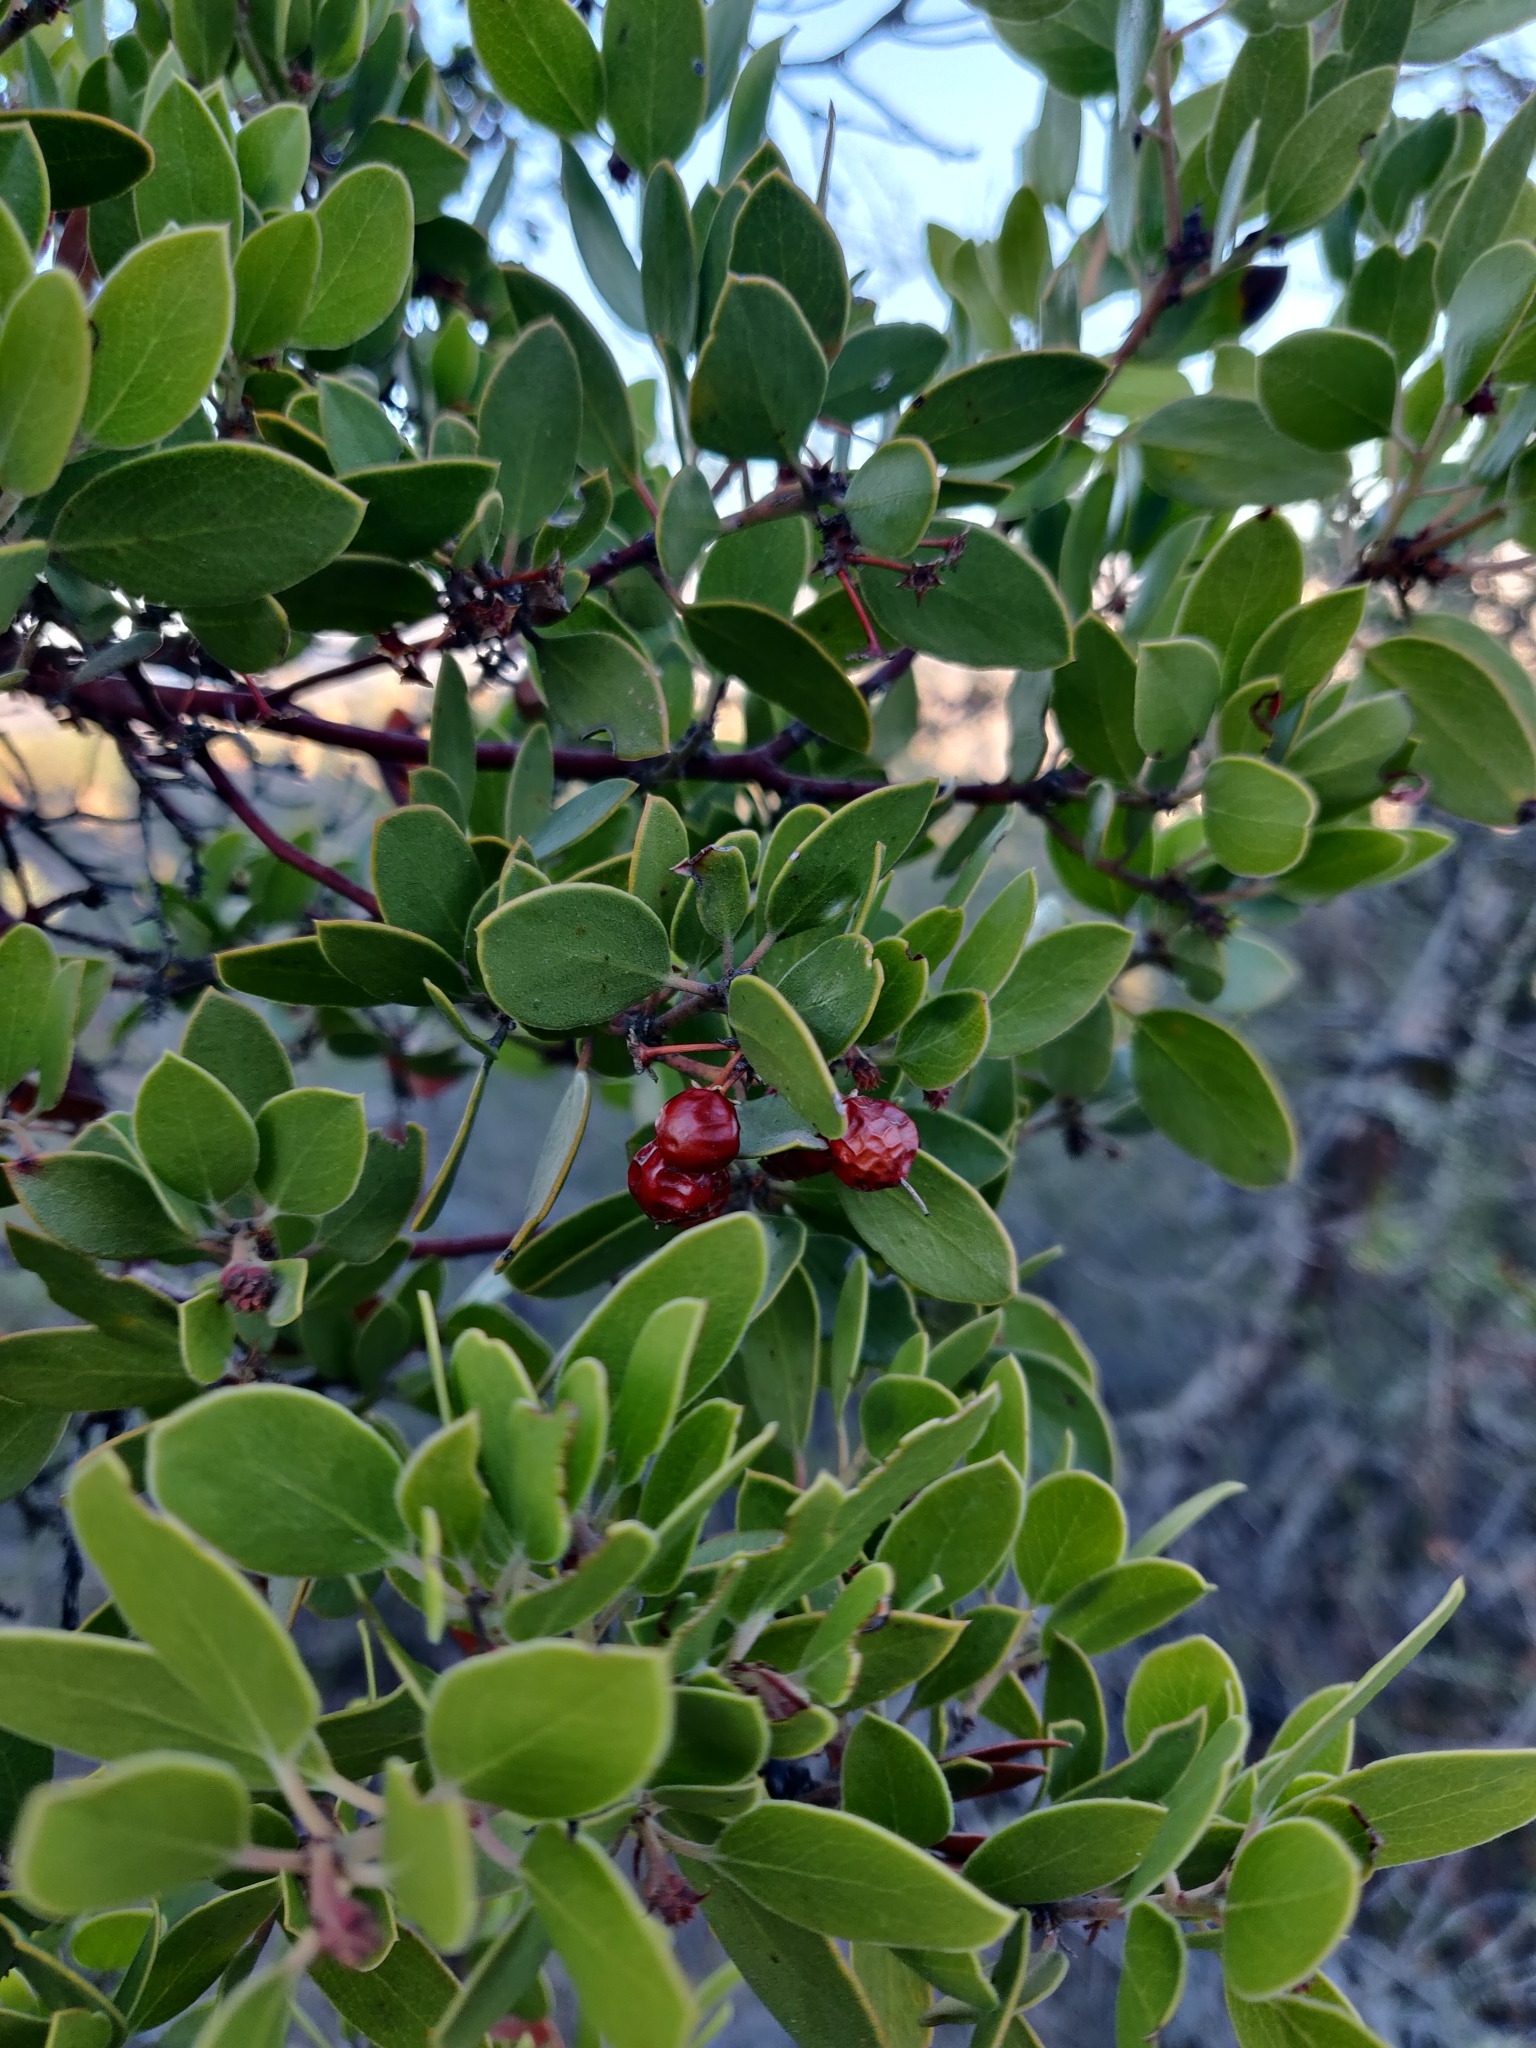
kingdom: Plantae
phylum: Tracheophyta
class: Magnoliopsida
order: Ericales
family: Ericaceae
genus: Arctostaphylos
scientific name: Arctostaphylos pungens
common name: Mexican manzanita
